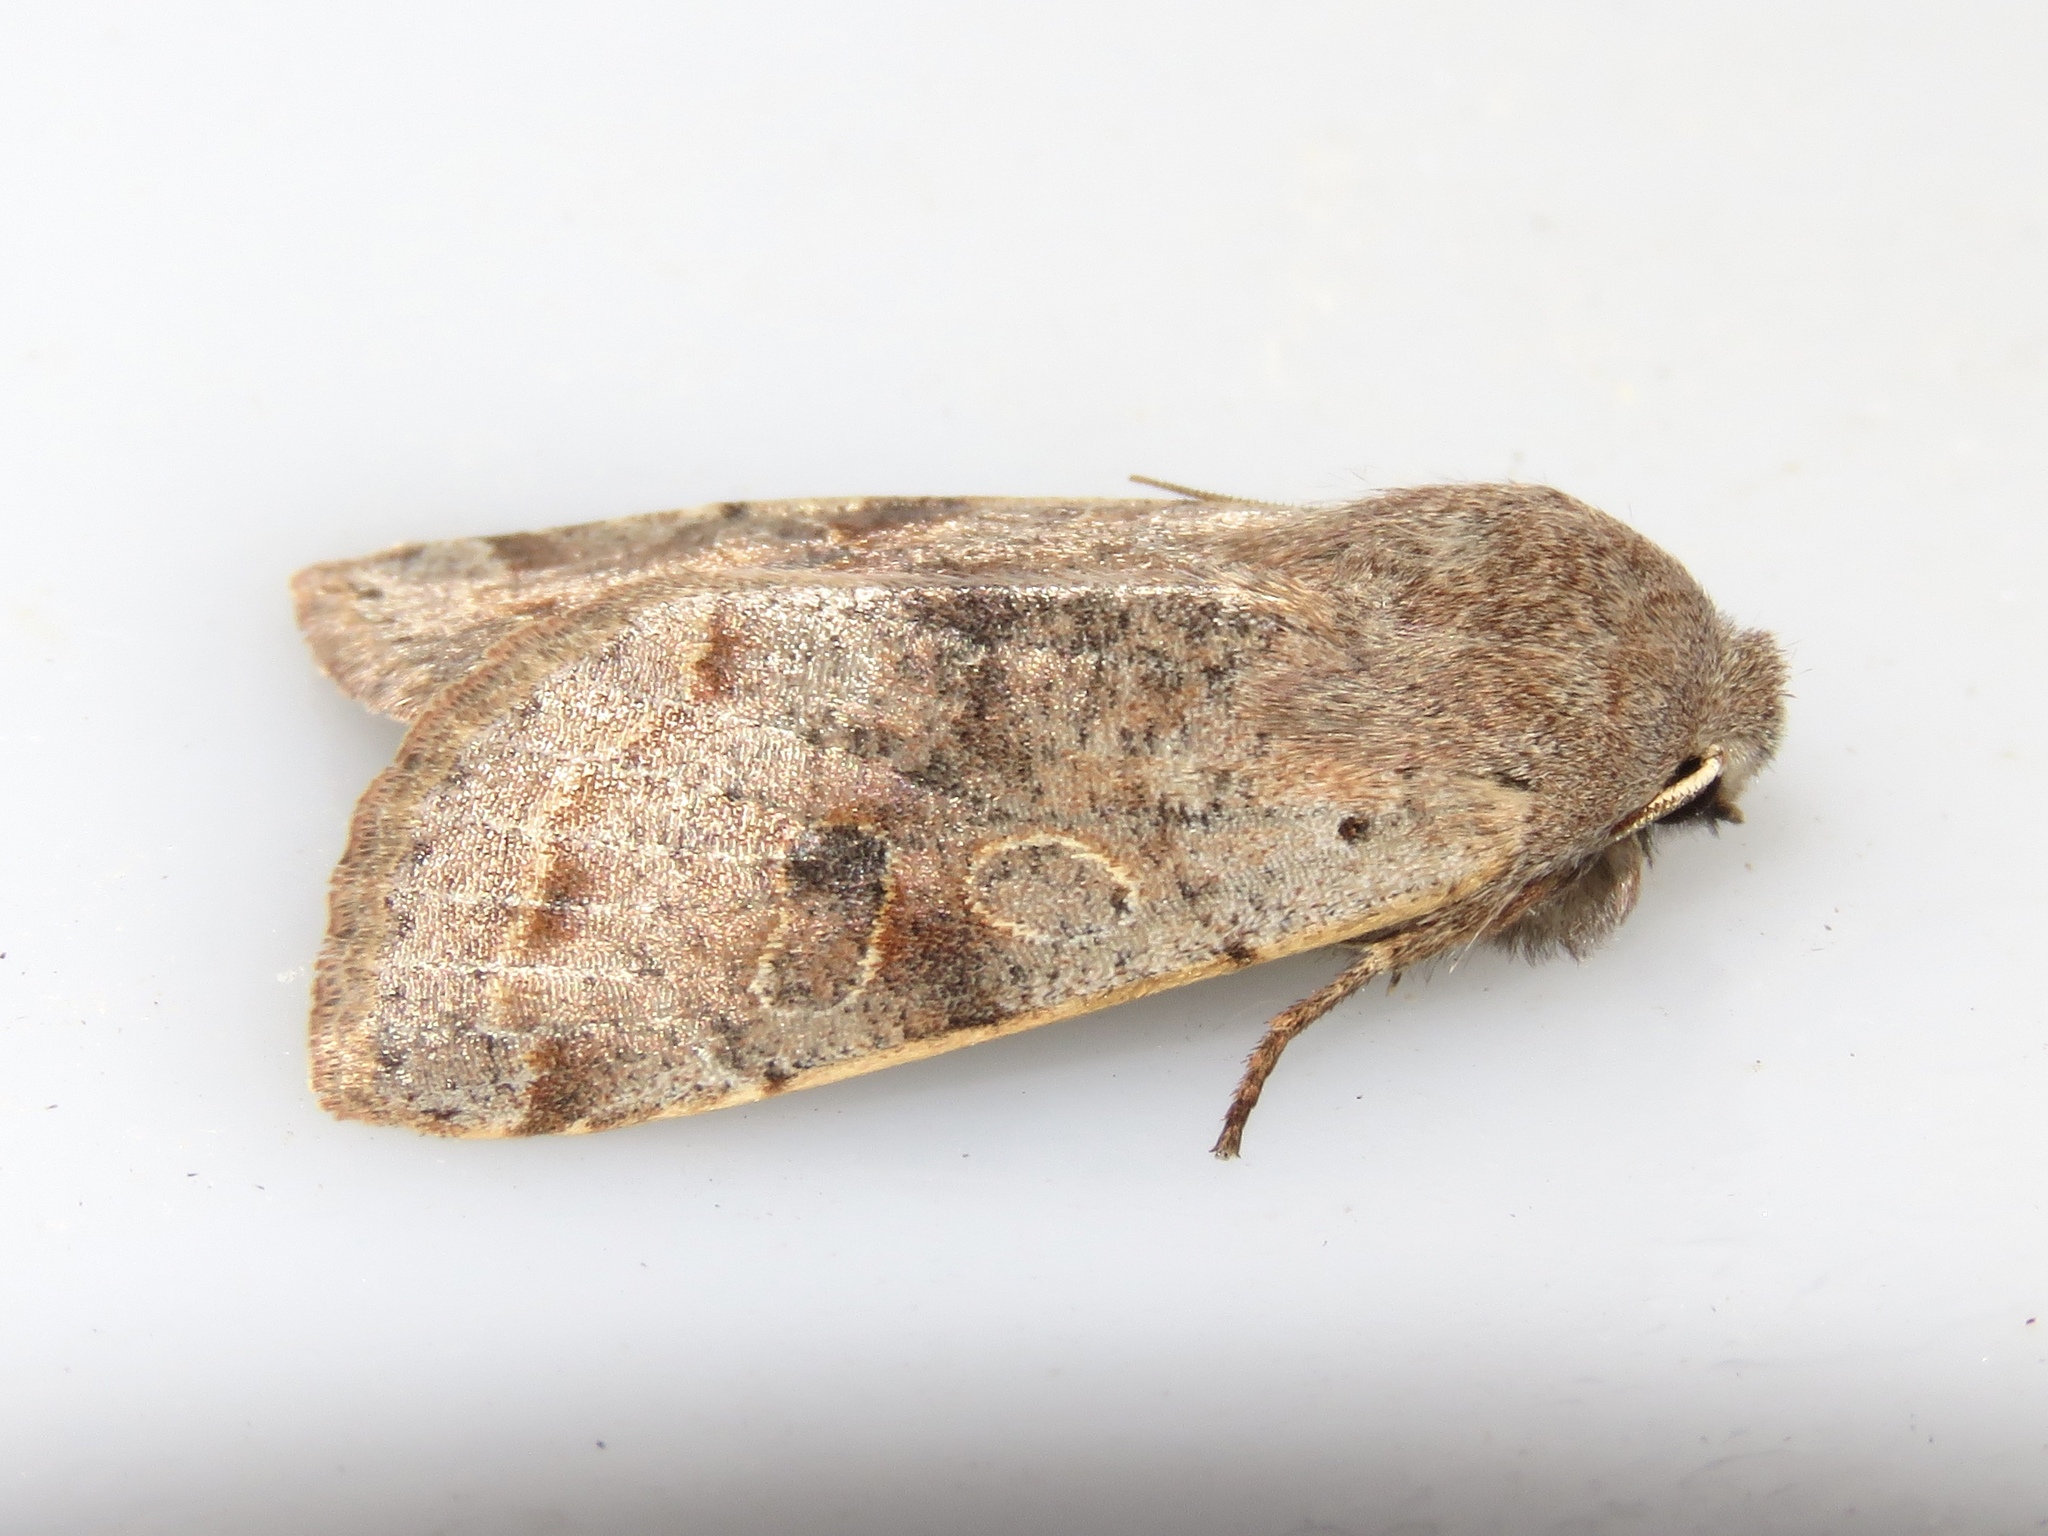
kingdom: Animalia
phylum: Arthropoda
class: Insecta
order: Lepidoptera
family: Noctuidae
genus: Orthosia
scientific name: Orthosia hibisci
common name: Green fruitworm
